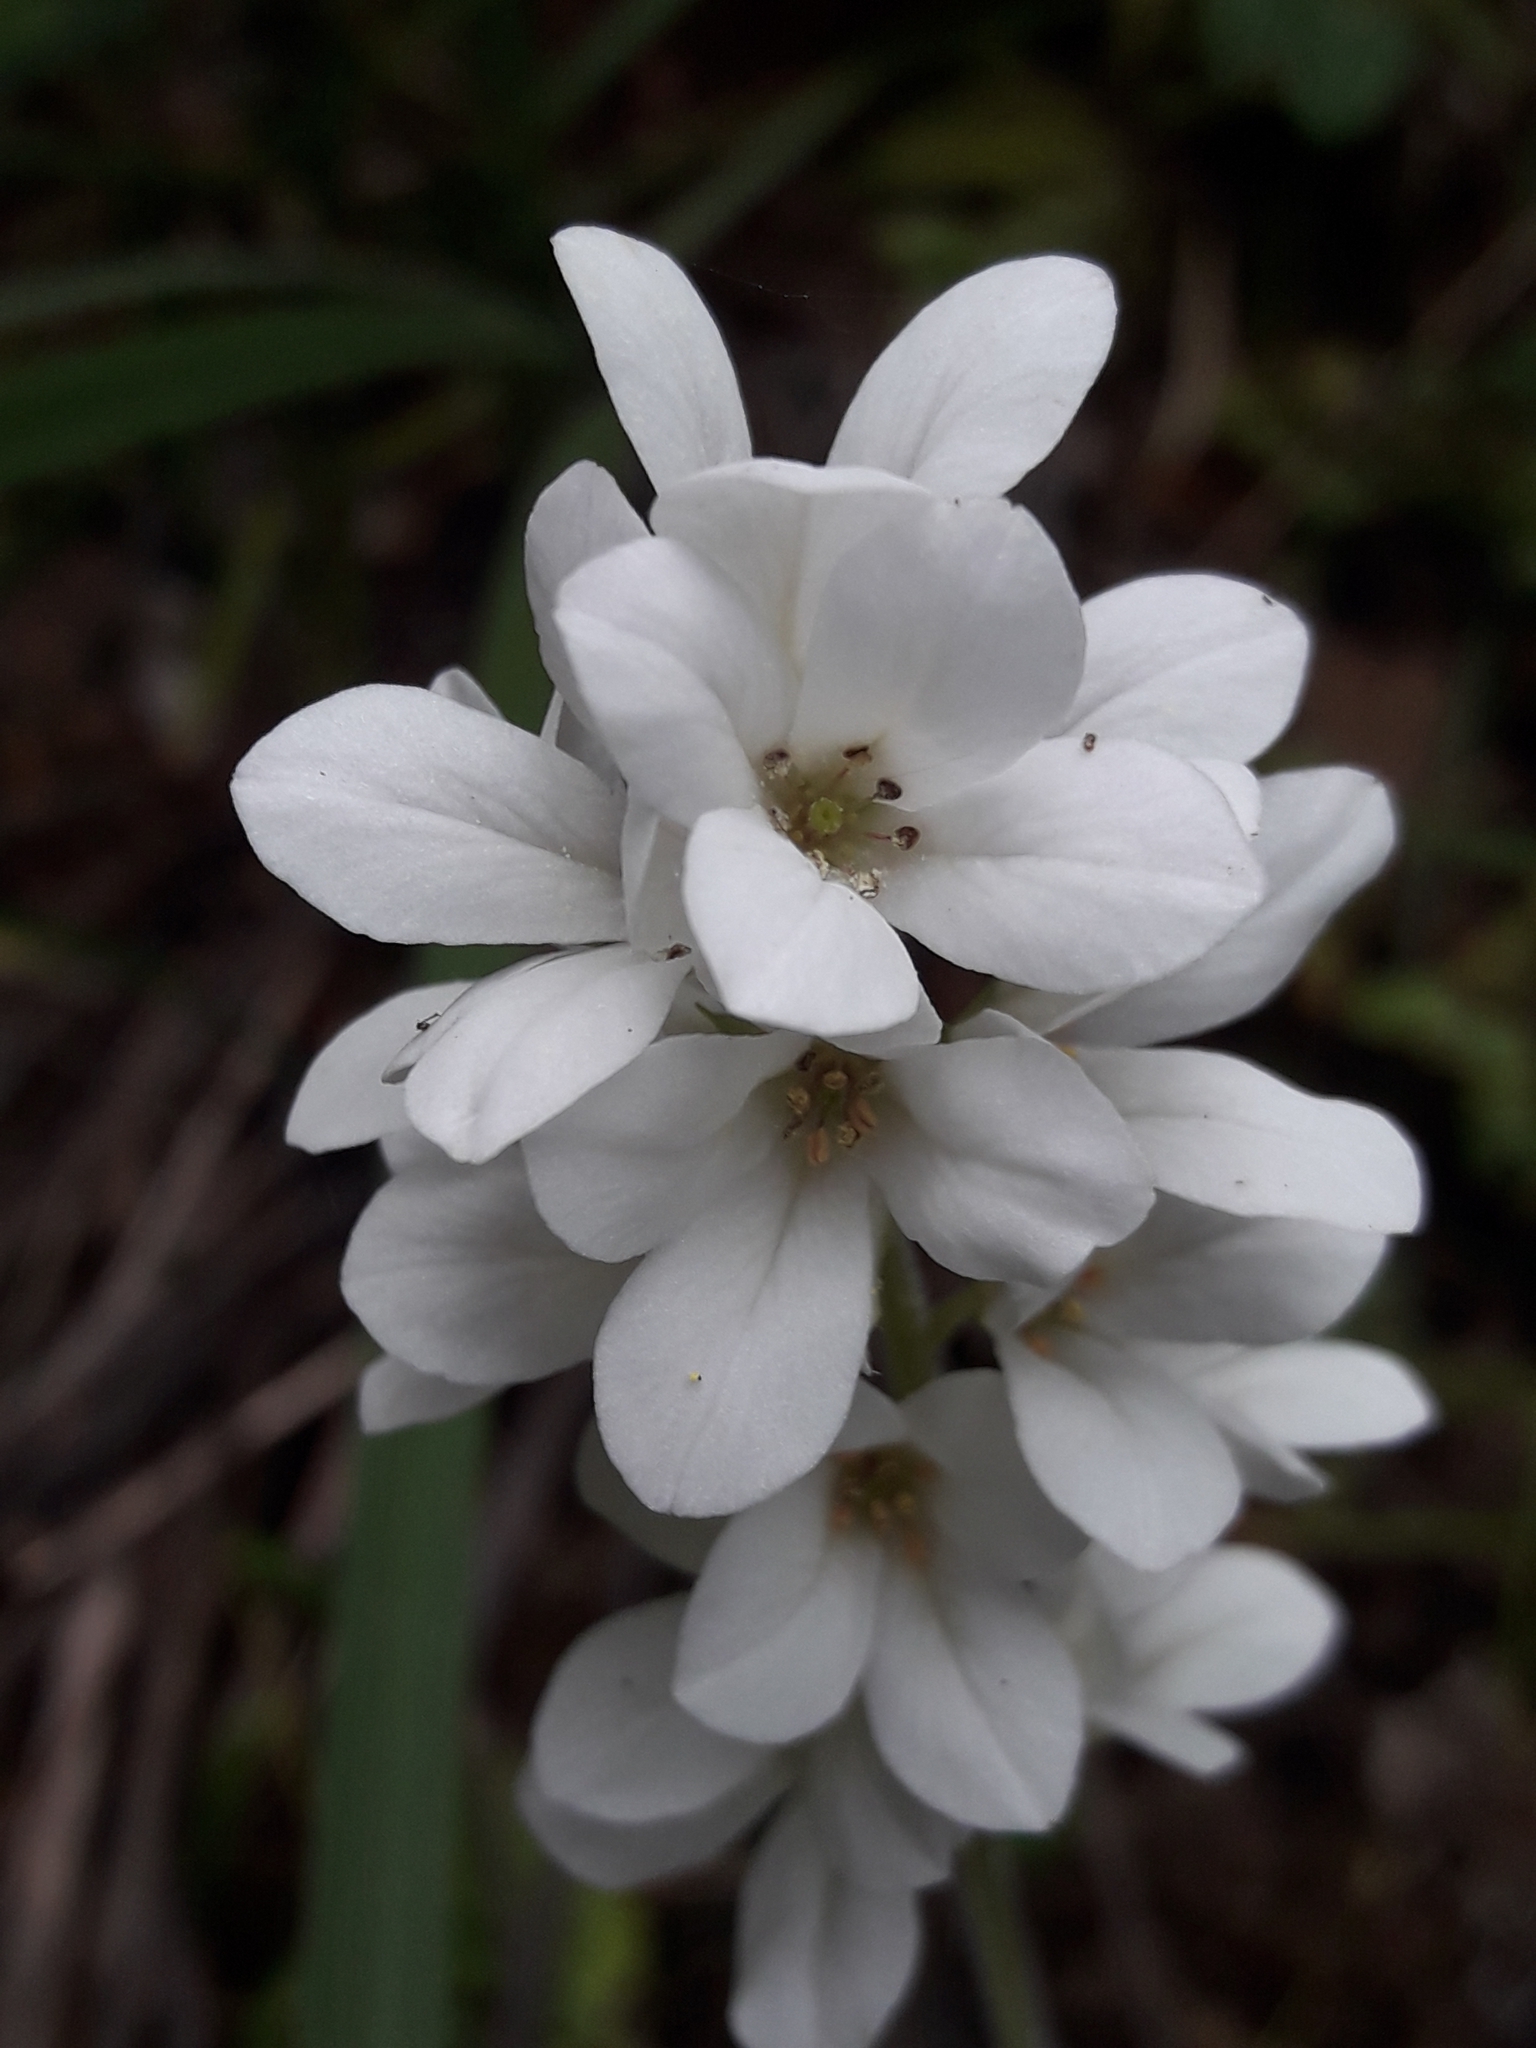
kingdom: Plantae
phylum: Tracheophyta
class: Magnoliopsida
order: Geraniales
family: Francoaceae
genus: Francoa
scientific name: Francoa appendiculata
